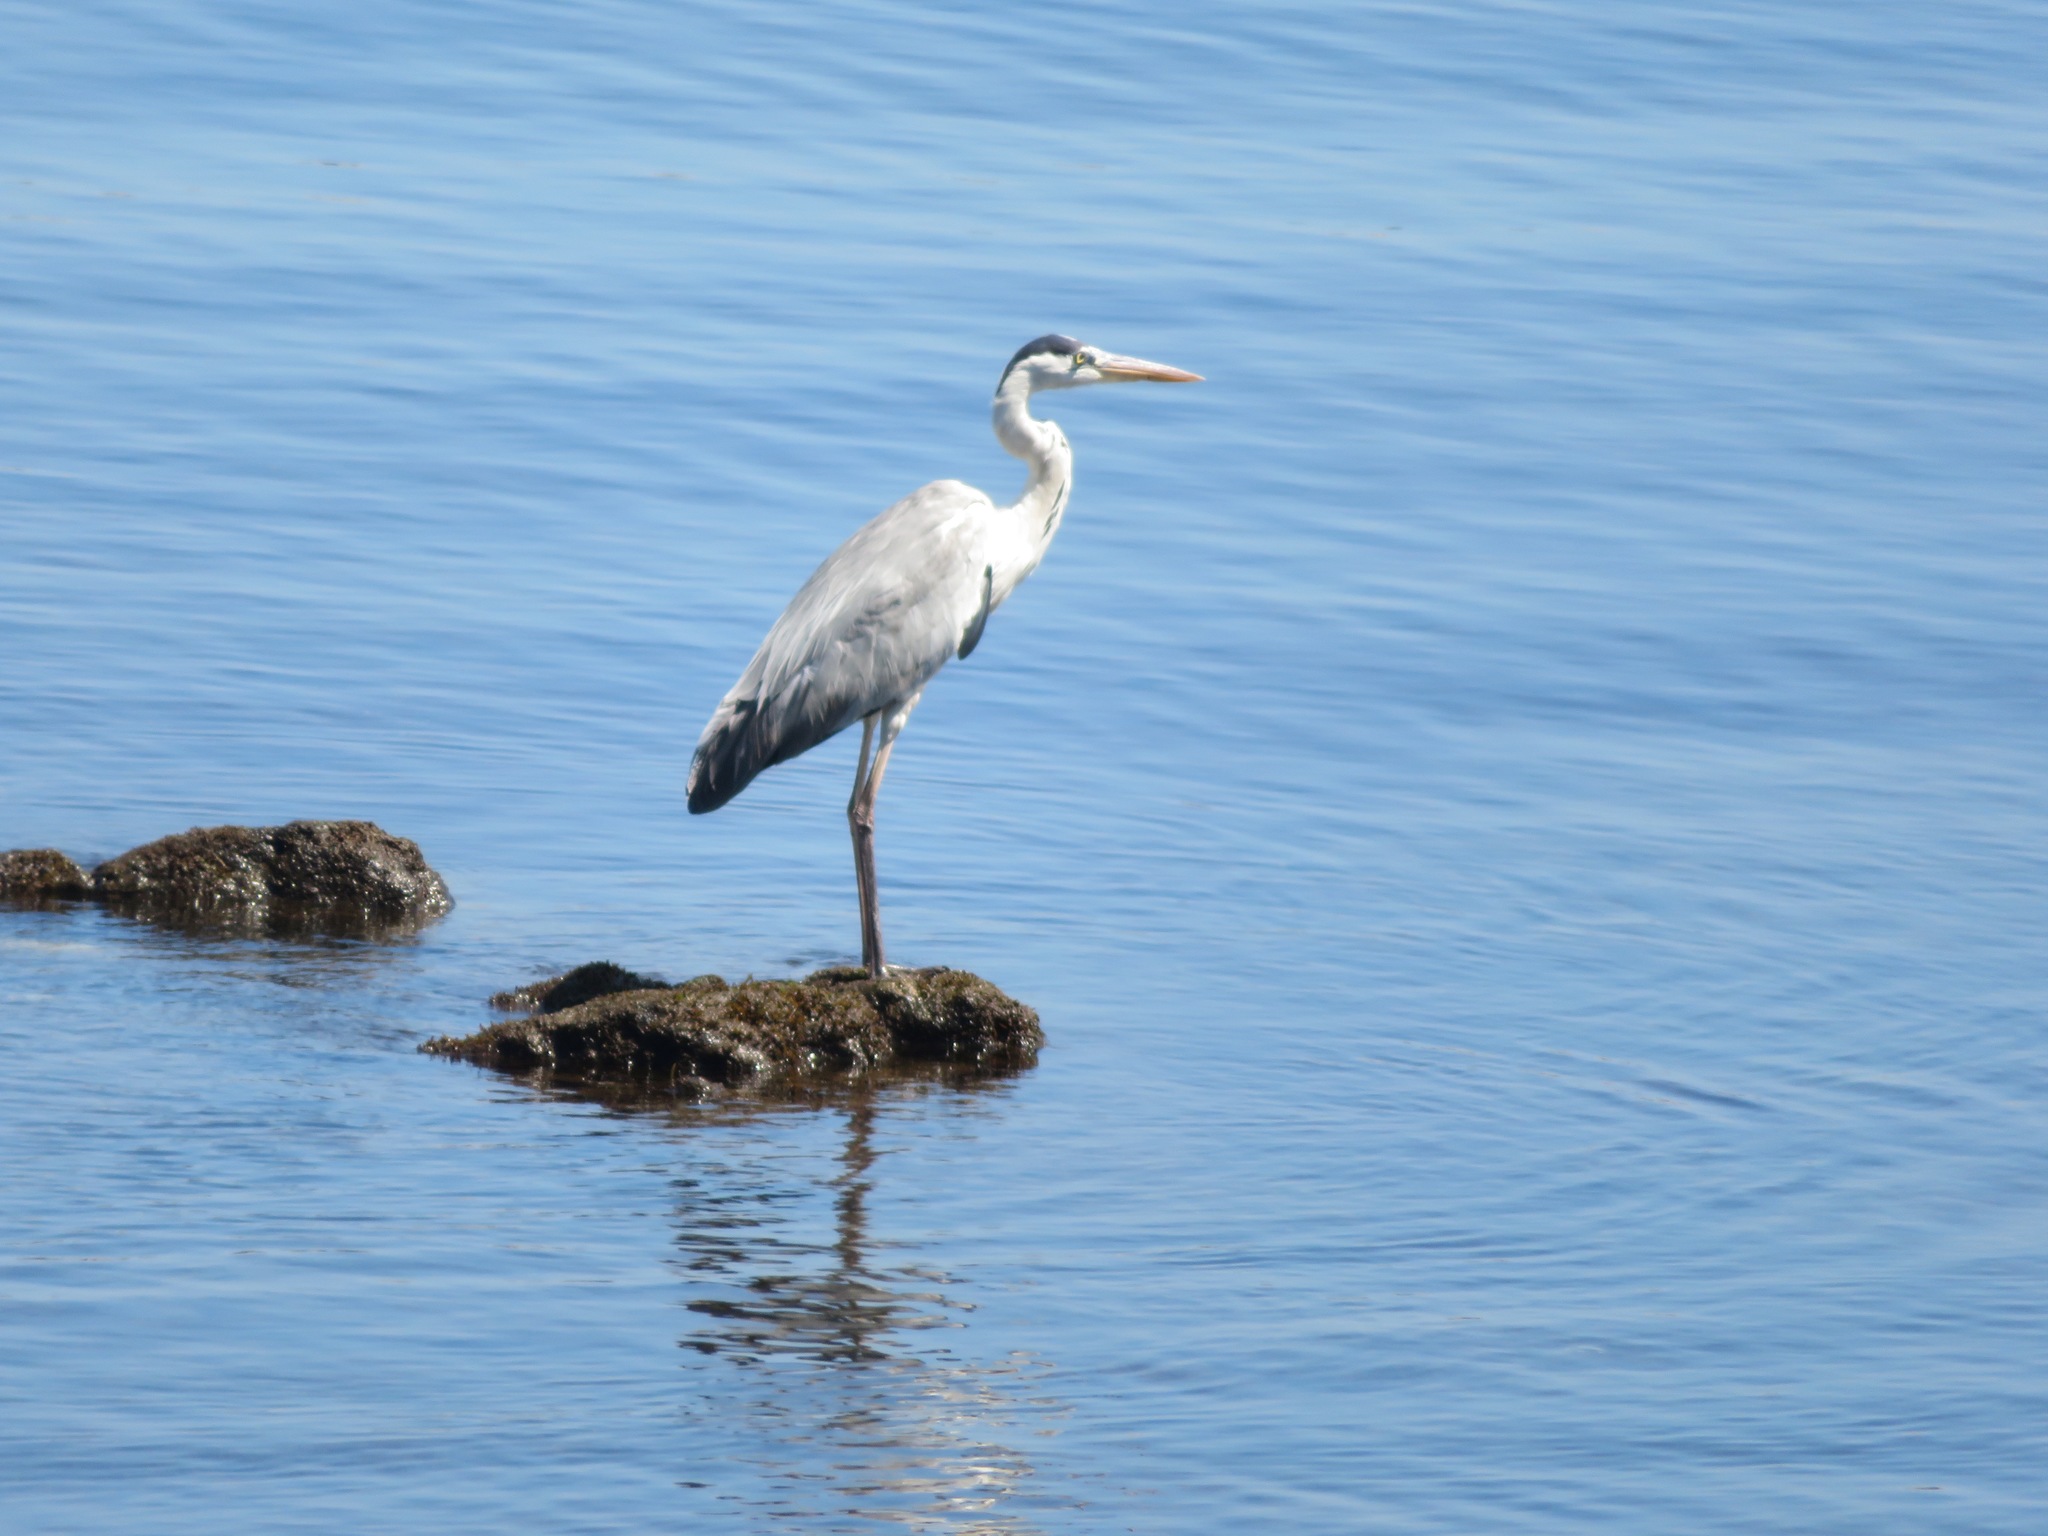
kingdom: Animalia
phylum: Chordata
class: Aves
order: Pelecaniformes
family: Ardeidae
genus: Ardea
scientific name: Ardea cinerea
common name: Grey heron
